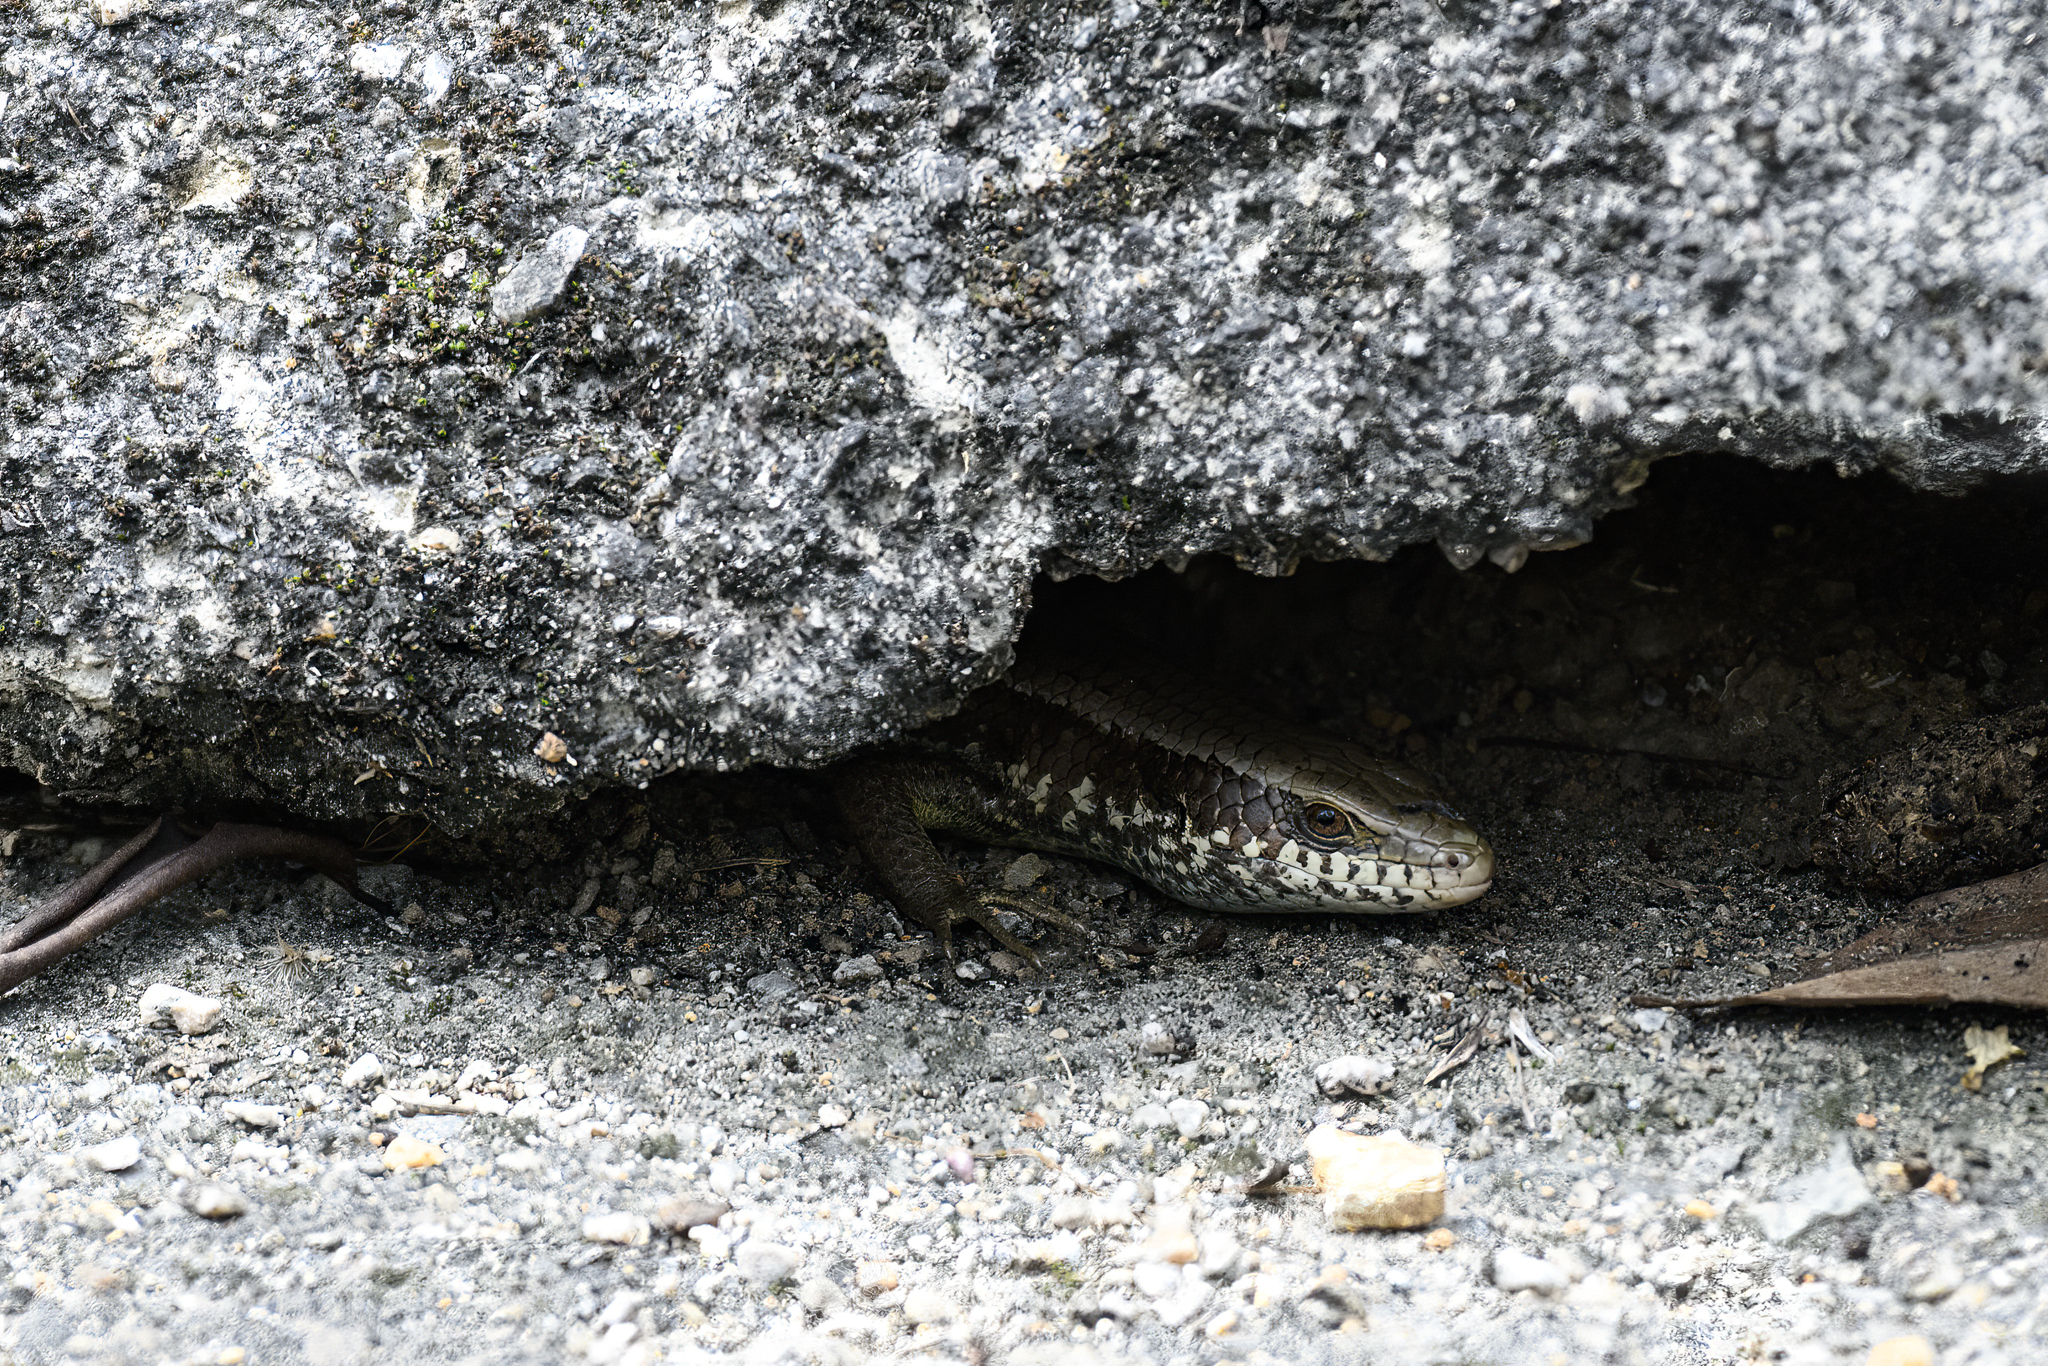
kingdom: Animalia
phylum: Chordata
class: Squamata
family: Scincidae
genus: Eutropis
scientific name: Eutropis longicaudata
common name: Long-tailed sun skink
